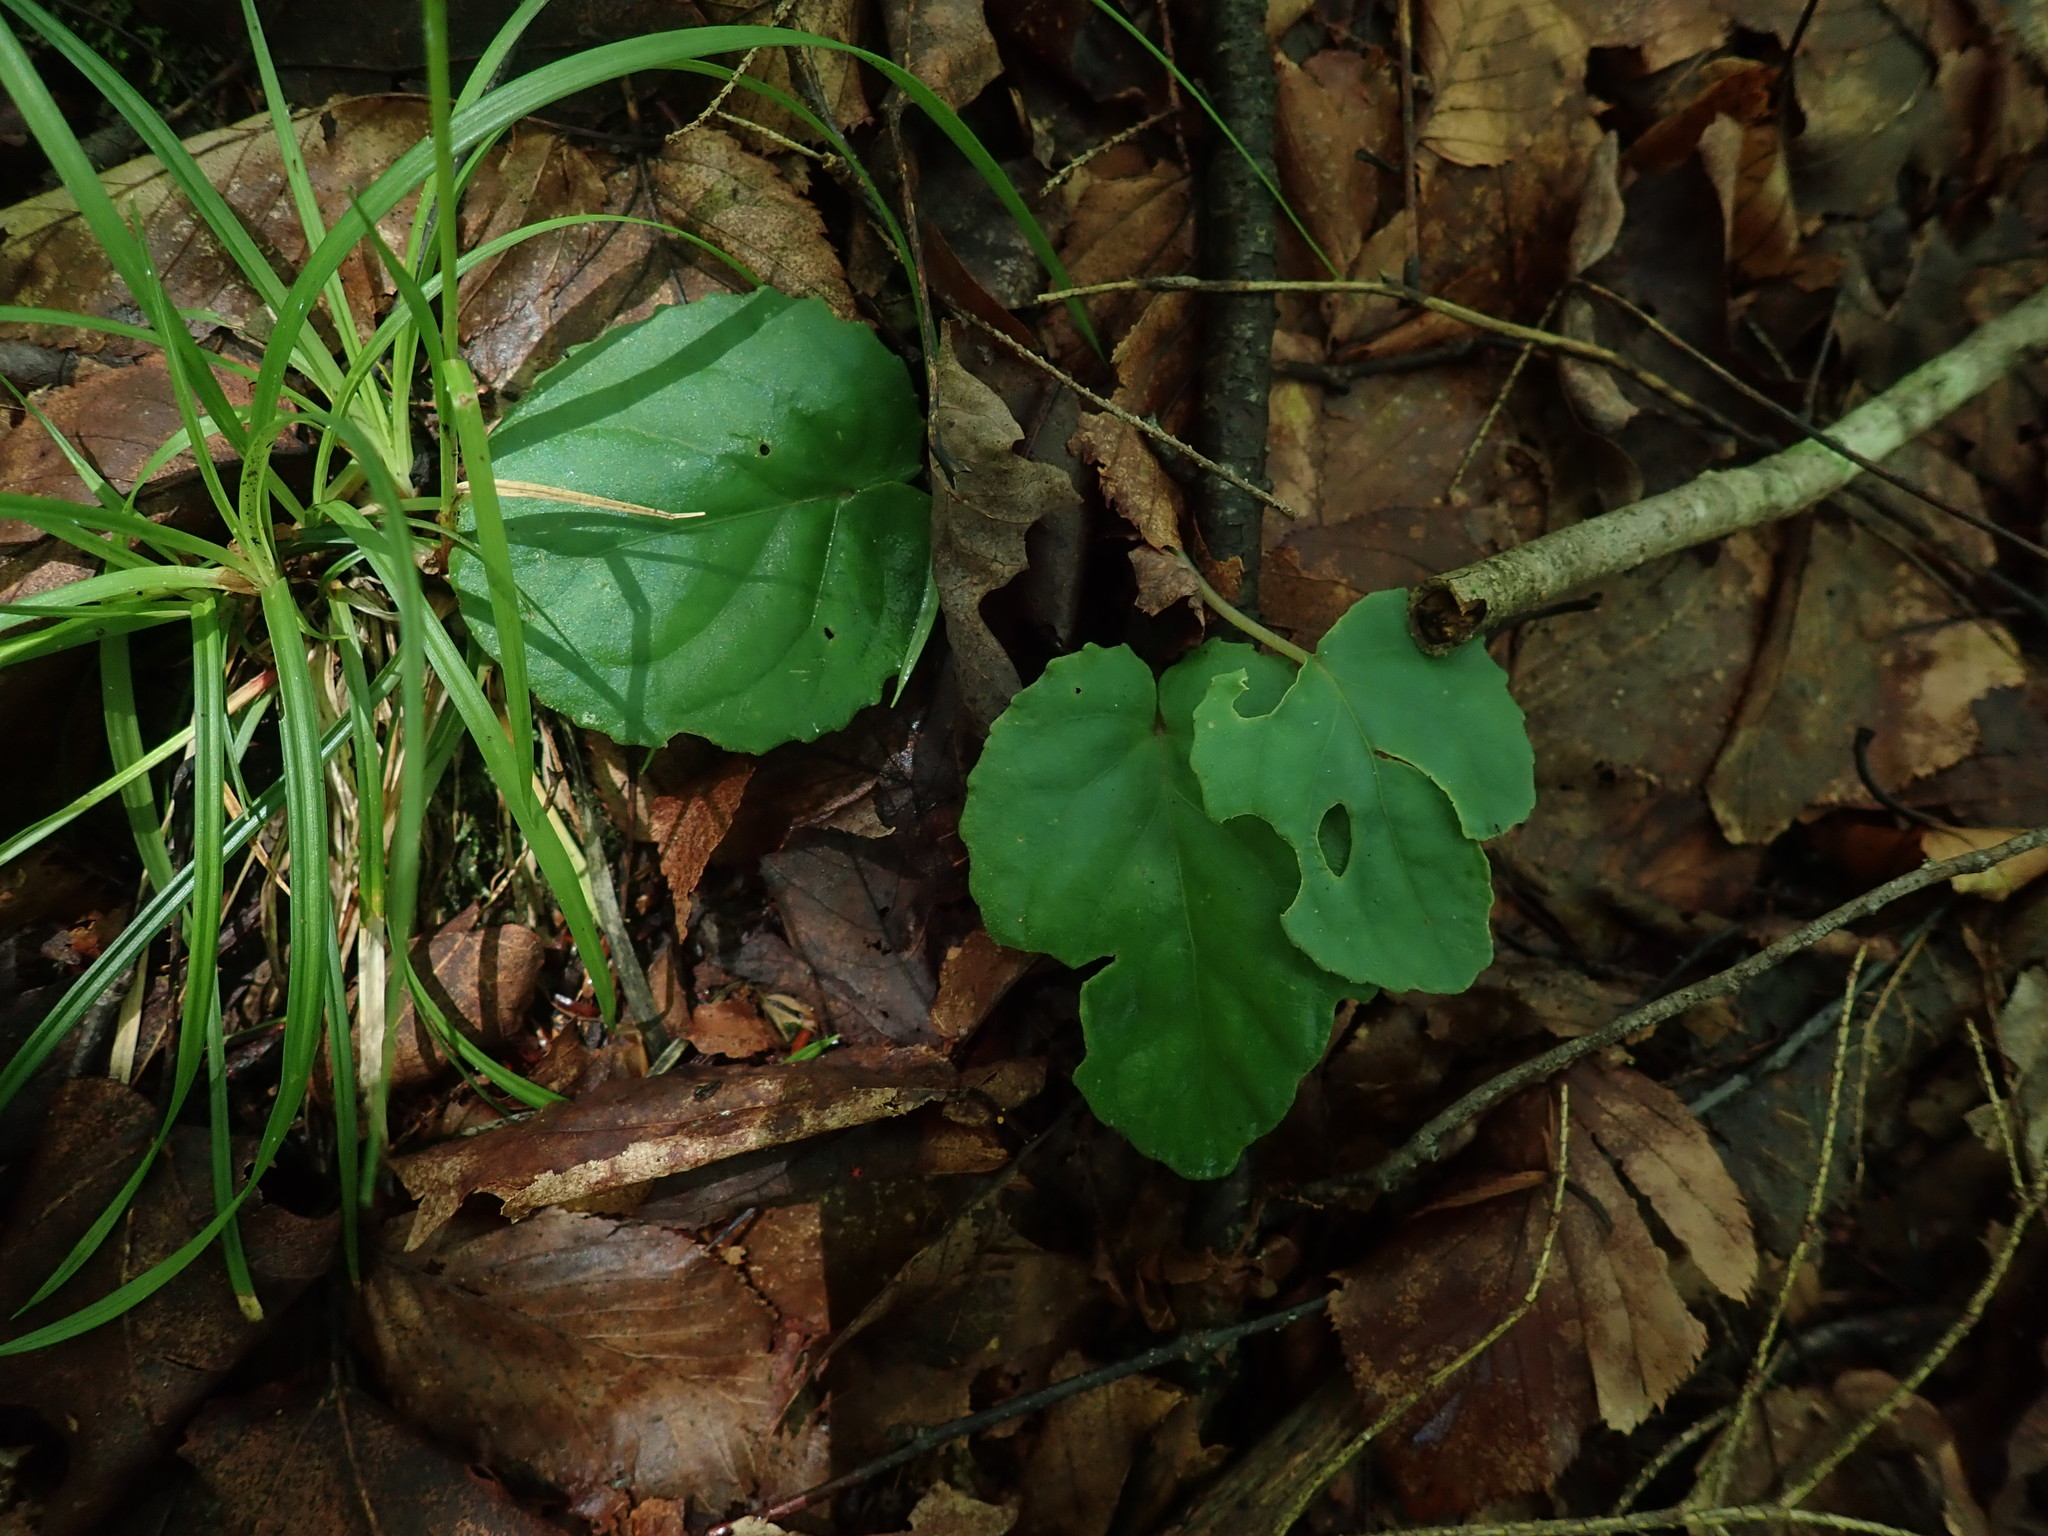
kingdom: Plantae
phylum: Tracheophyta
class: Magnoliopsida
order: Malpighiales
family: Violaceae
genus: Viola
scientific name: Viola rotundifolia
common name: Early yellow violet
